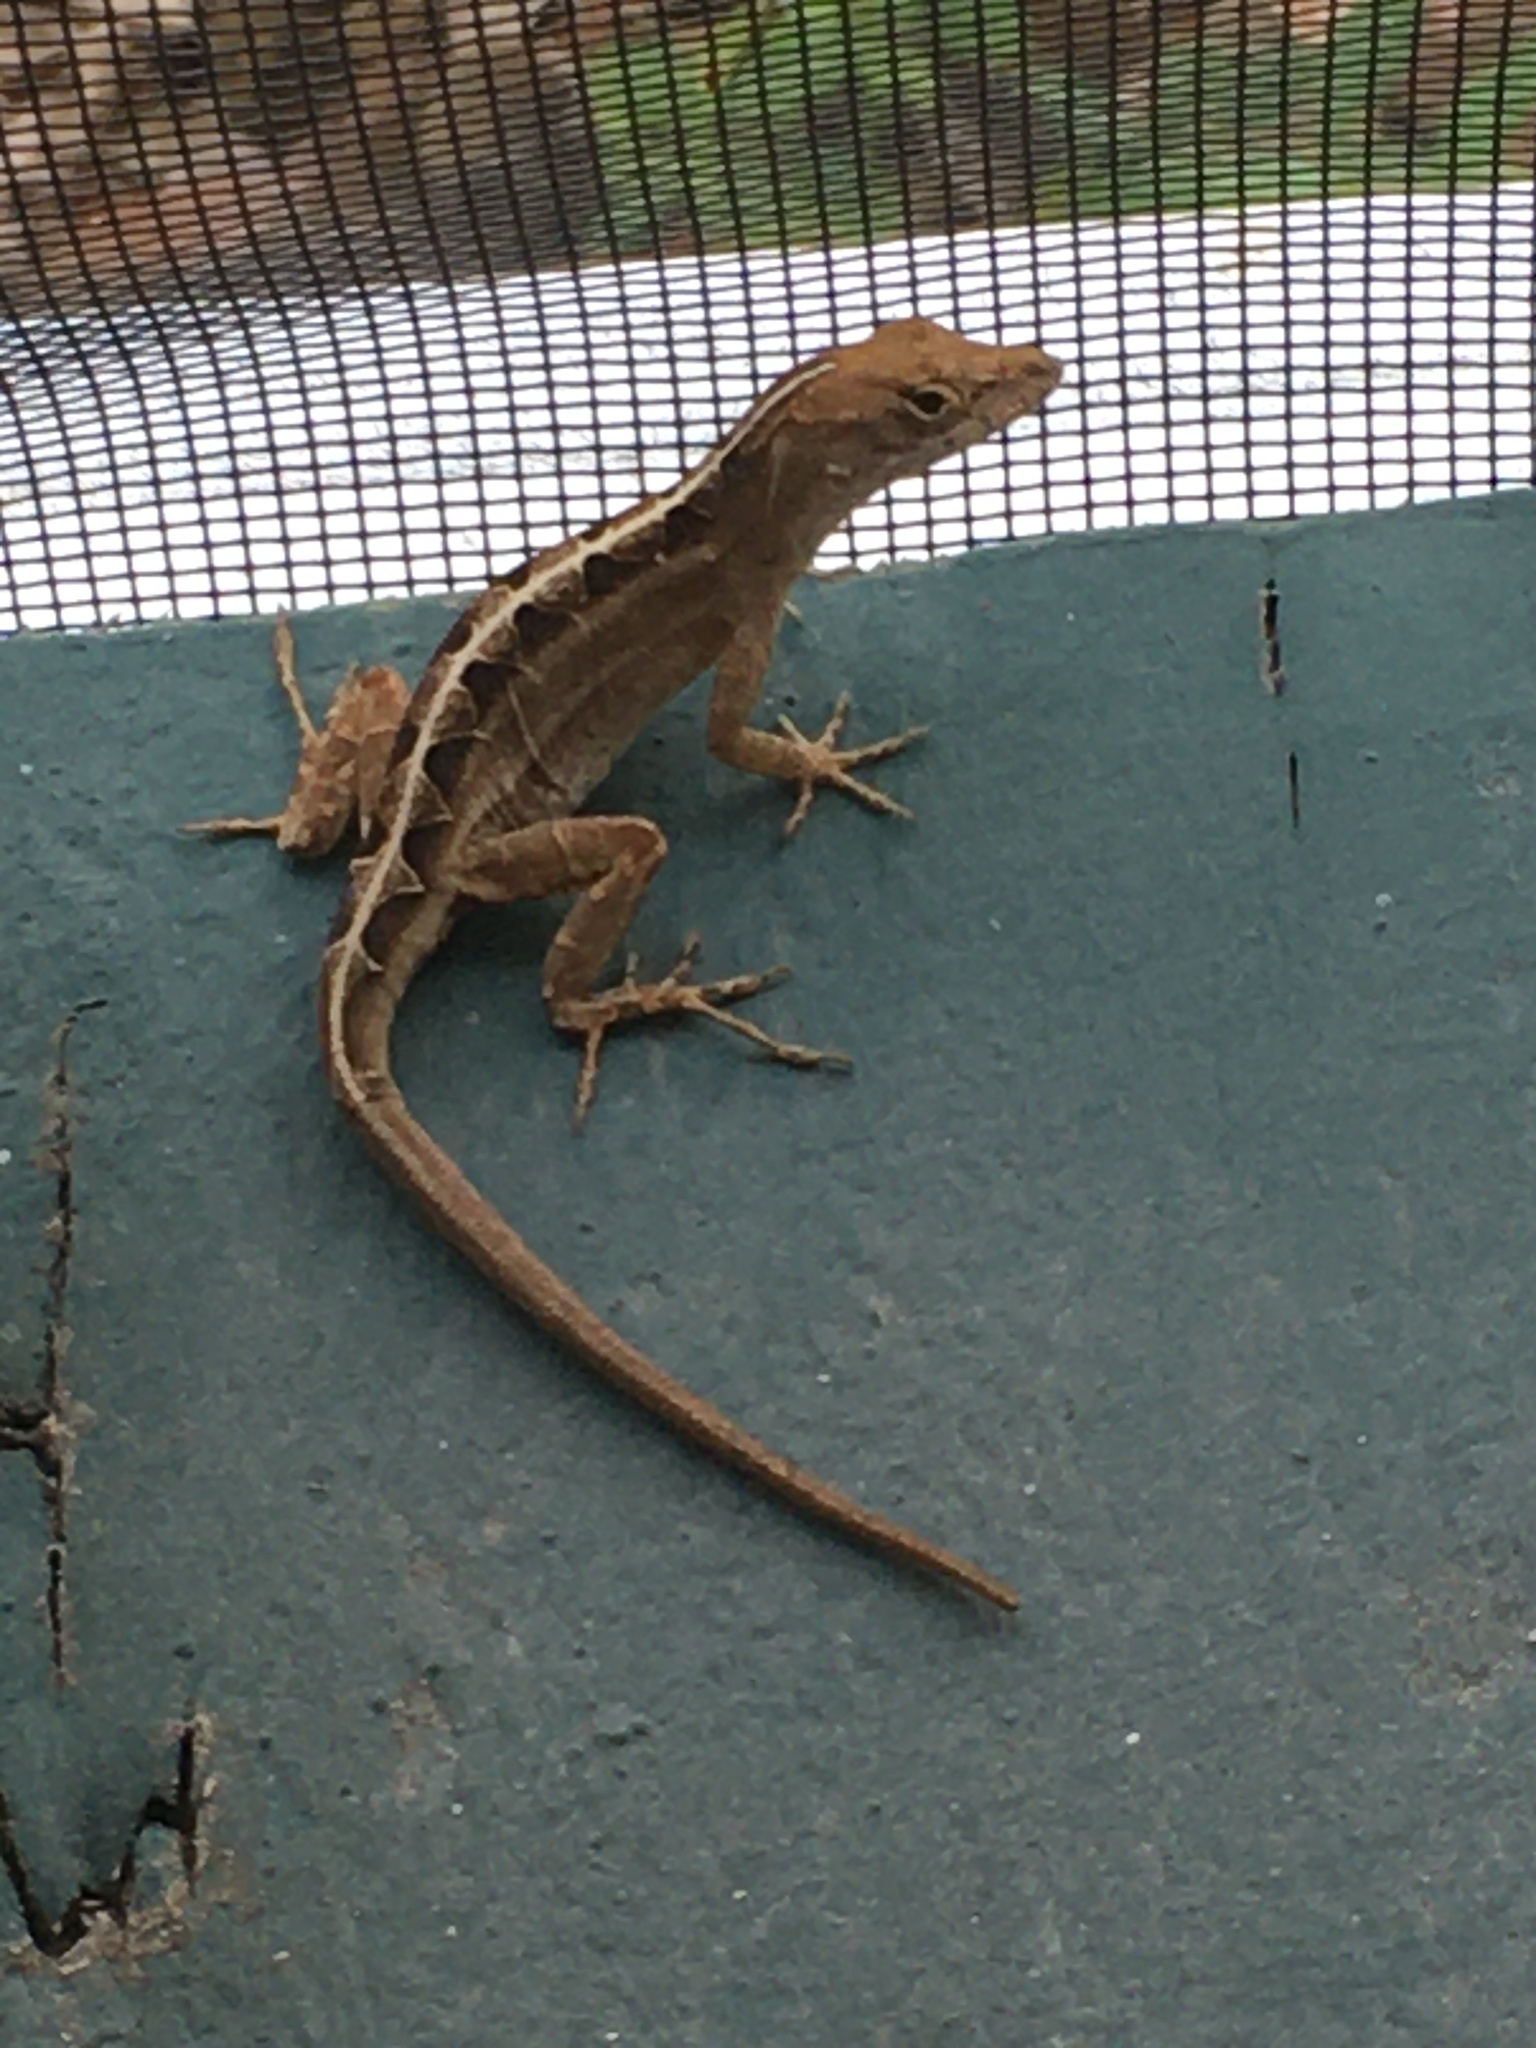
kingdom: Animalia
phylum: Chordata
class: Squamata
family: Dactyloidae
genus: Anolis
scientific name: Anolis sagrei
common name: Brown anole
